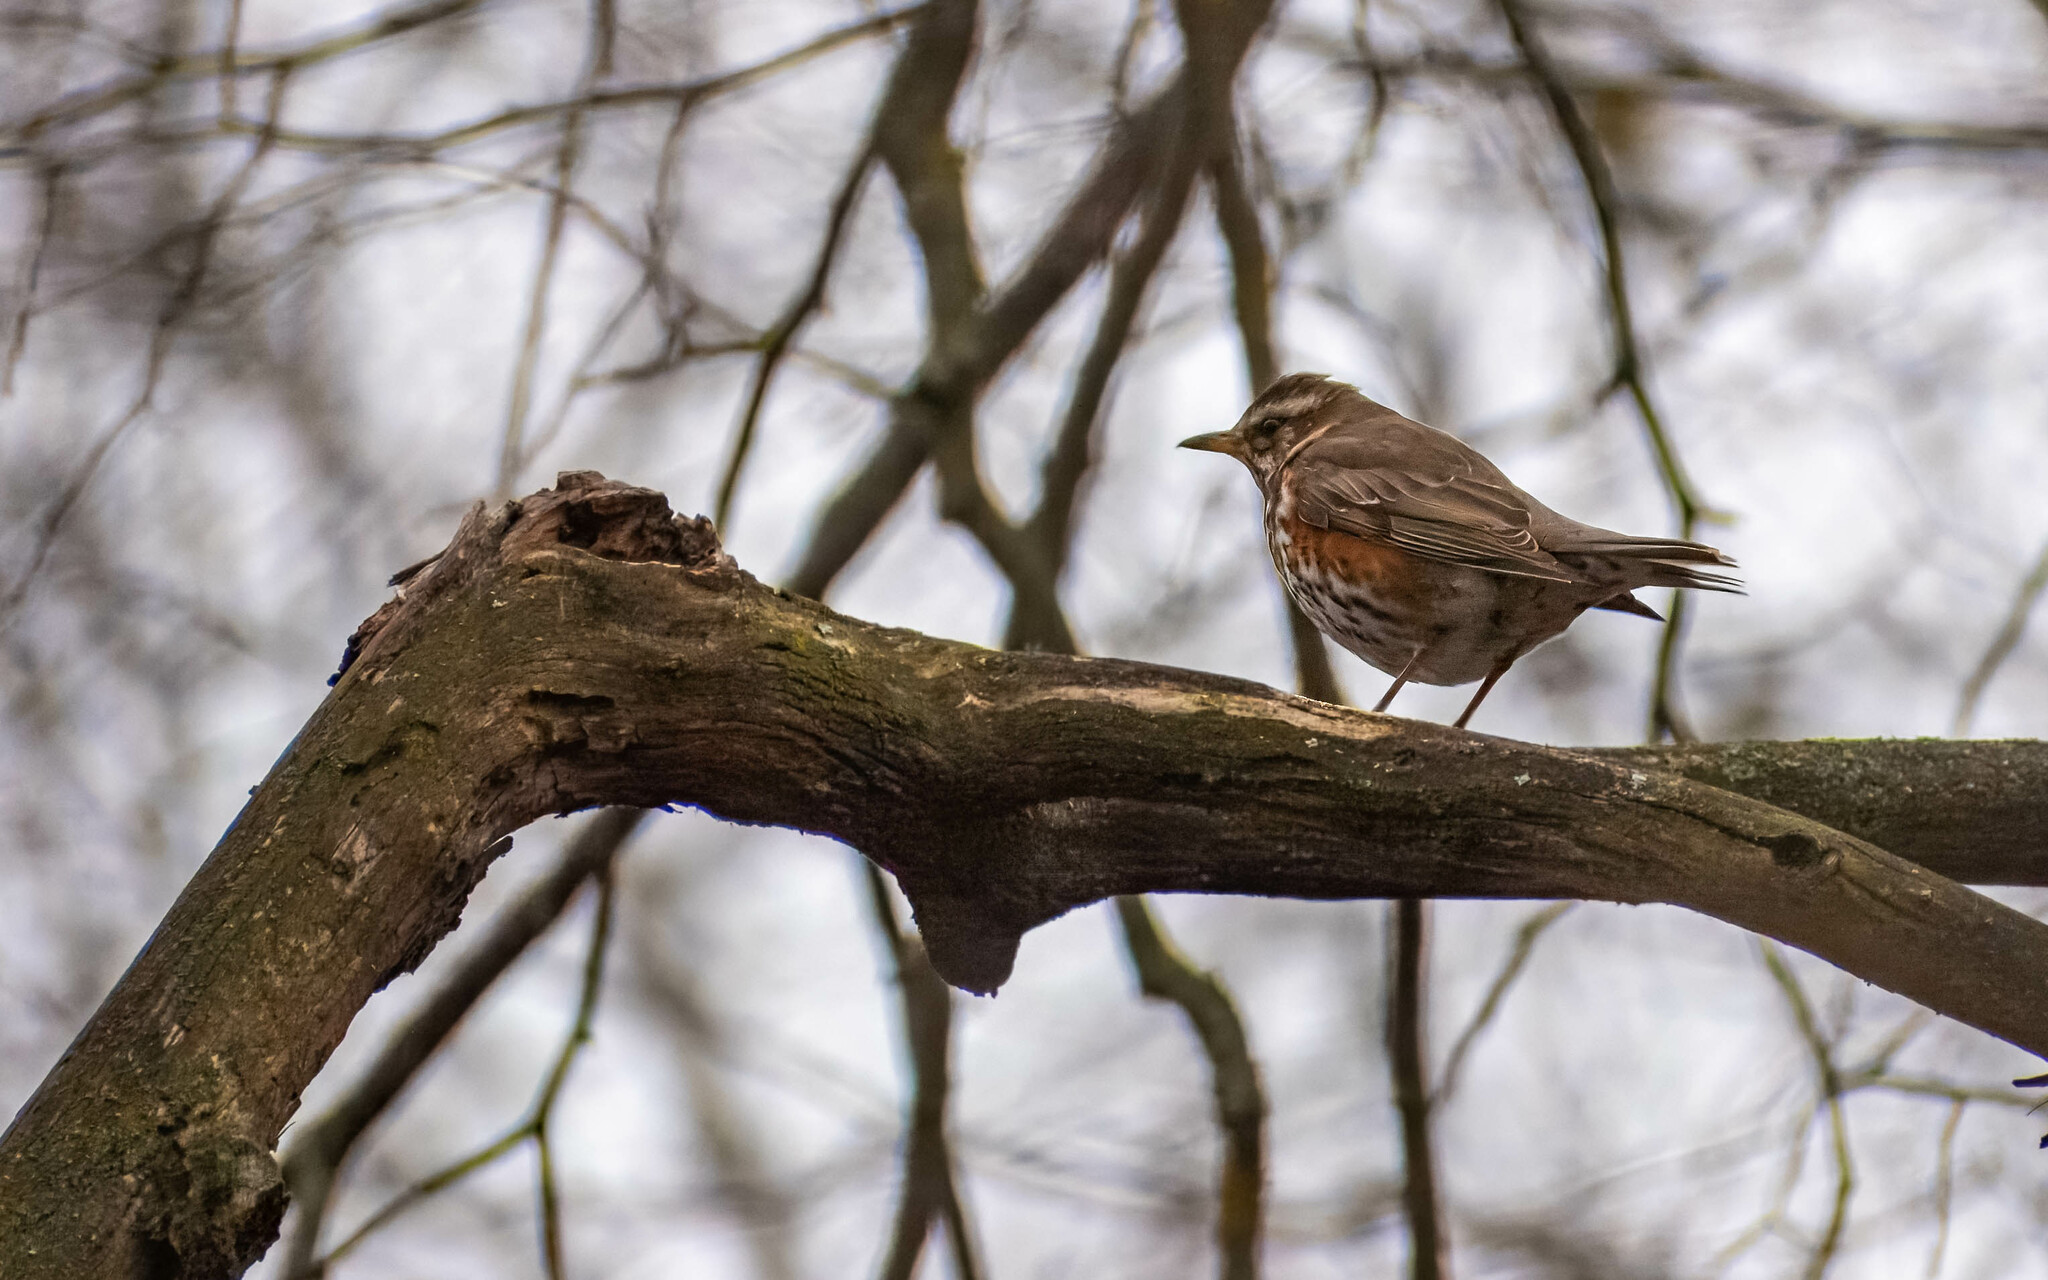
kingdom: Animalia
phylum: Chordata
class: Aves
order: Passeriformes
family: Turdidae
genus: Turdus
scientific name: Turdus iliacus
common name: Redwing
